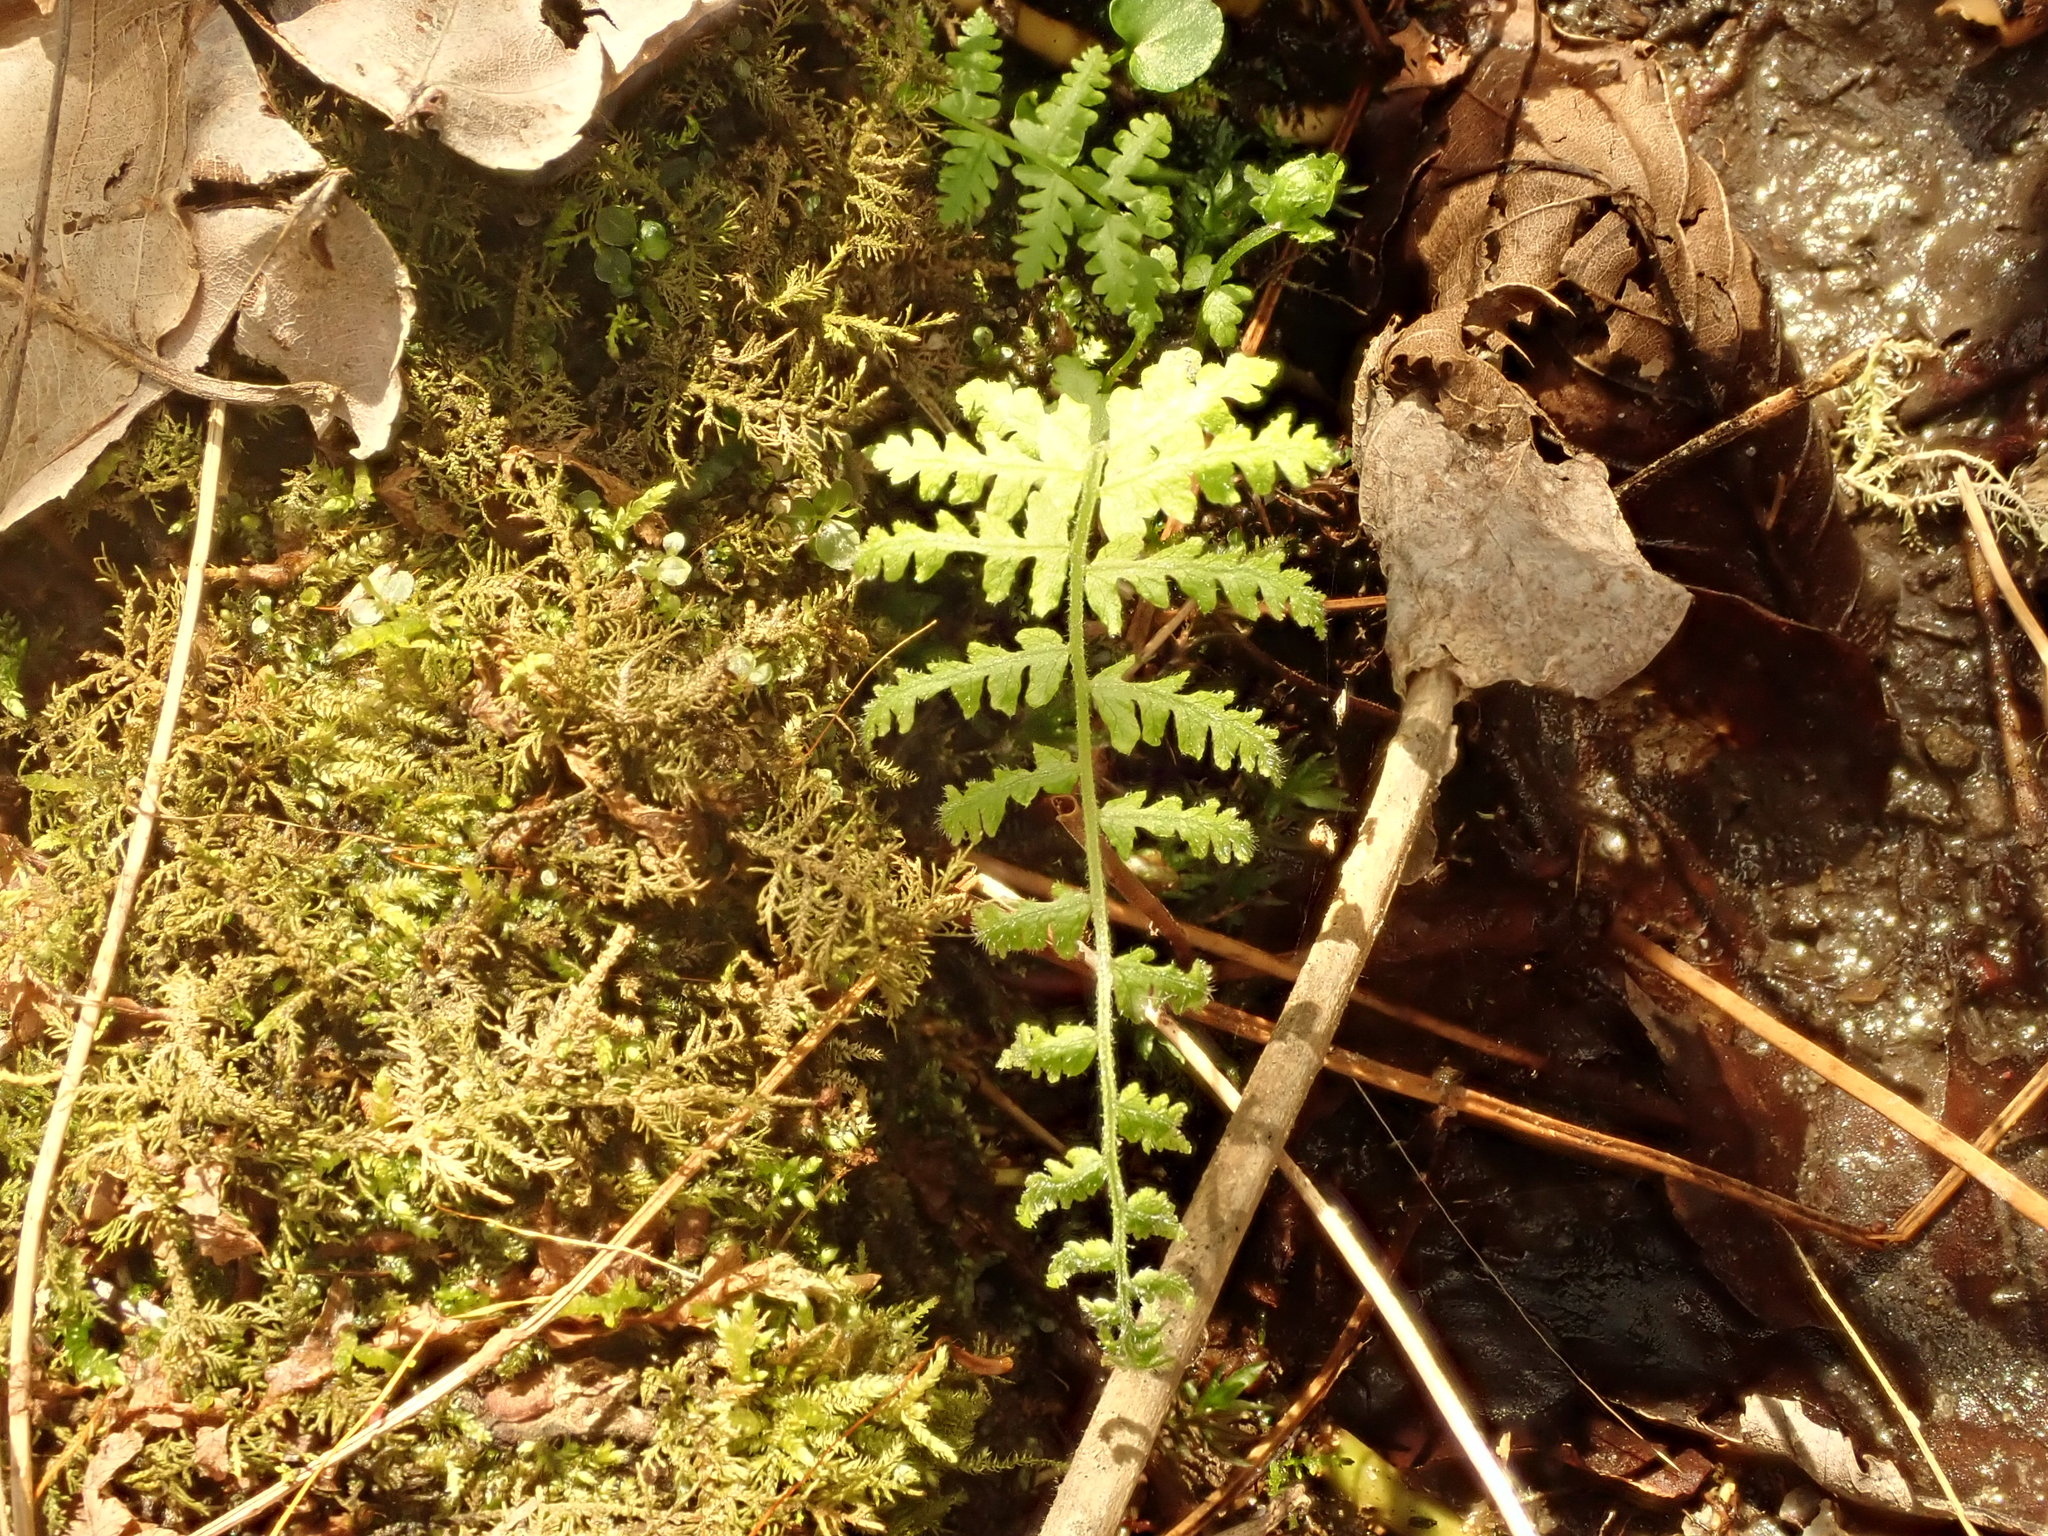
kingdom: Plantae
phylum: Tracheophyta
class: Polypodiopsida
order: Polypodiales
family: Woodsiaceae
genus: Physematium
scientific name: Physematium obtusum
